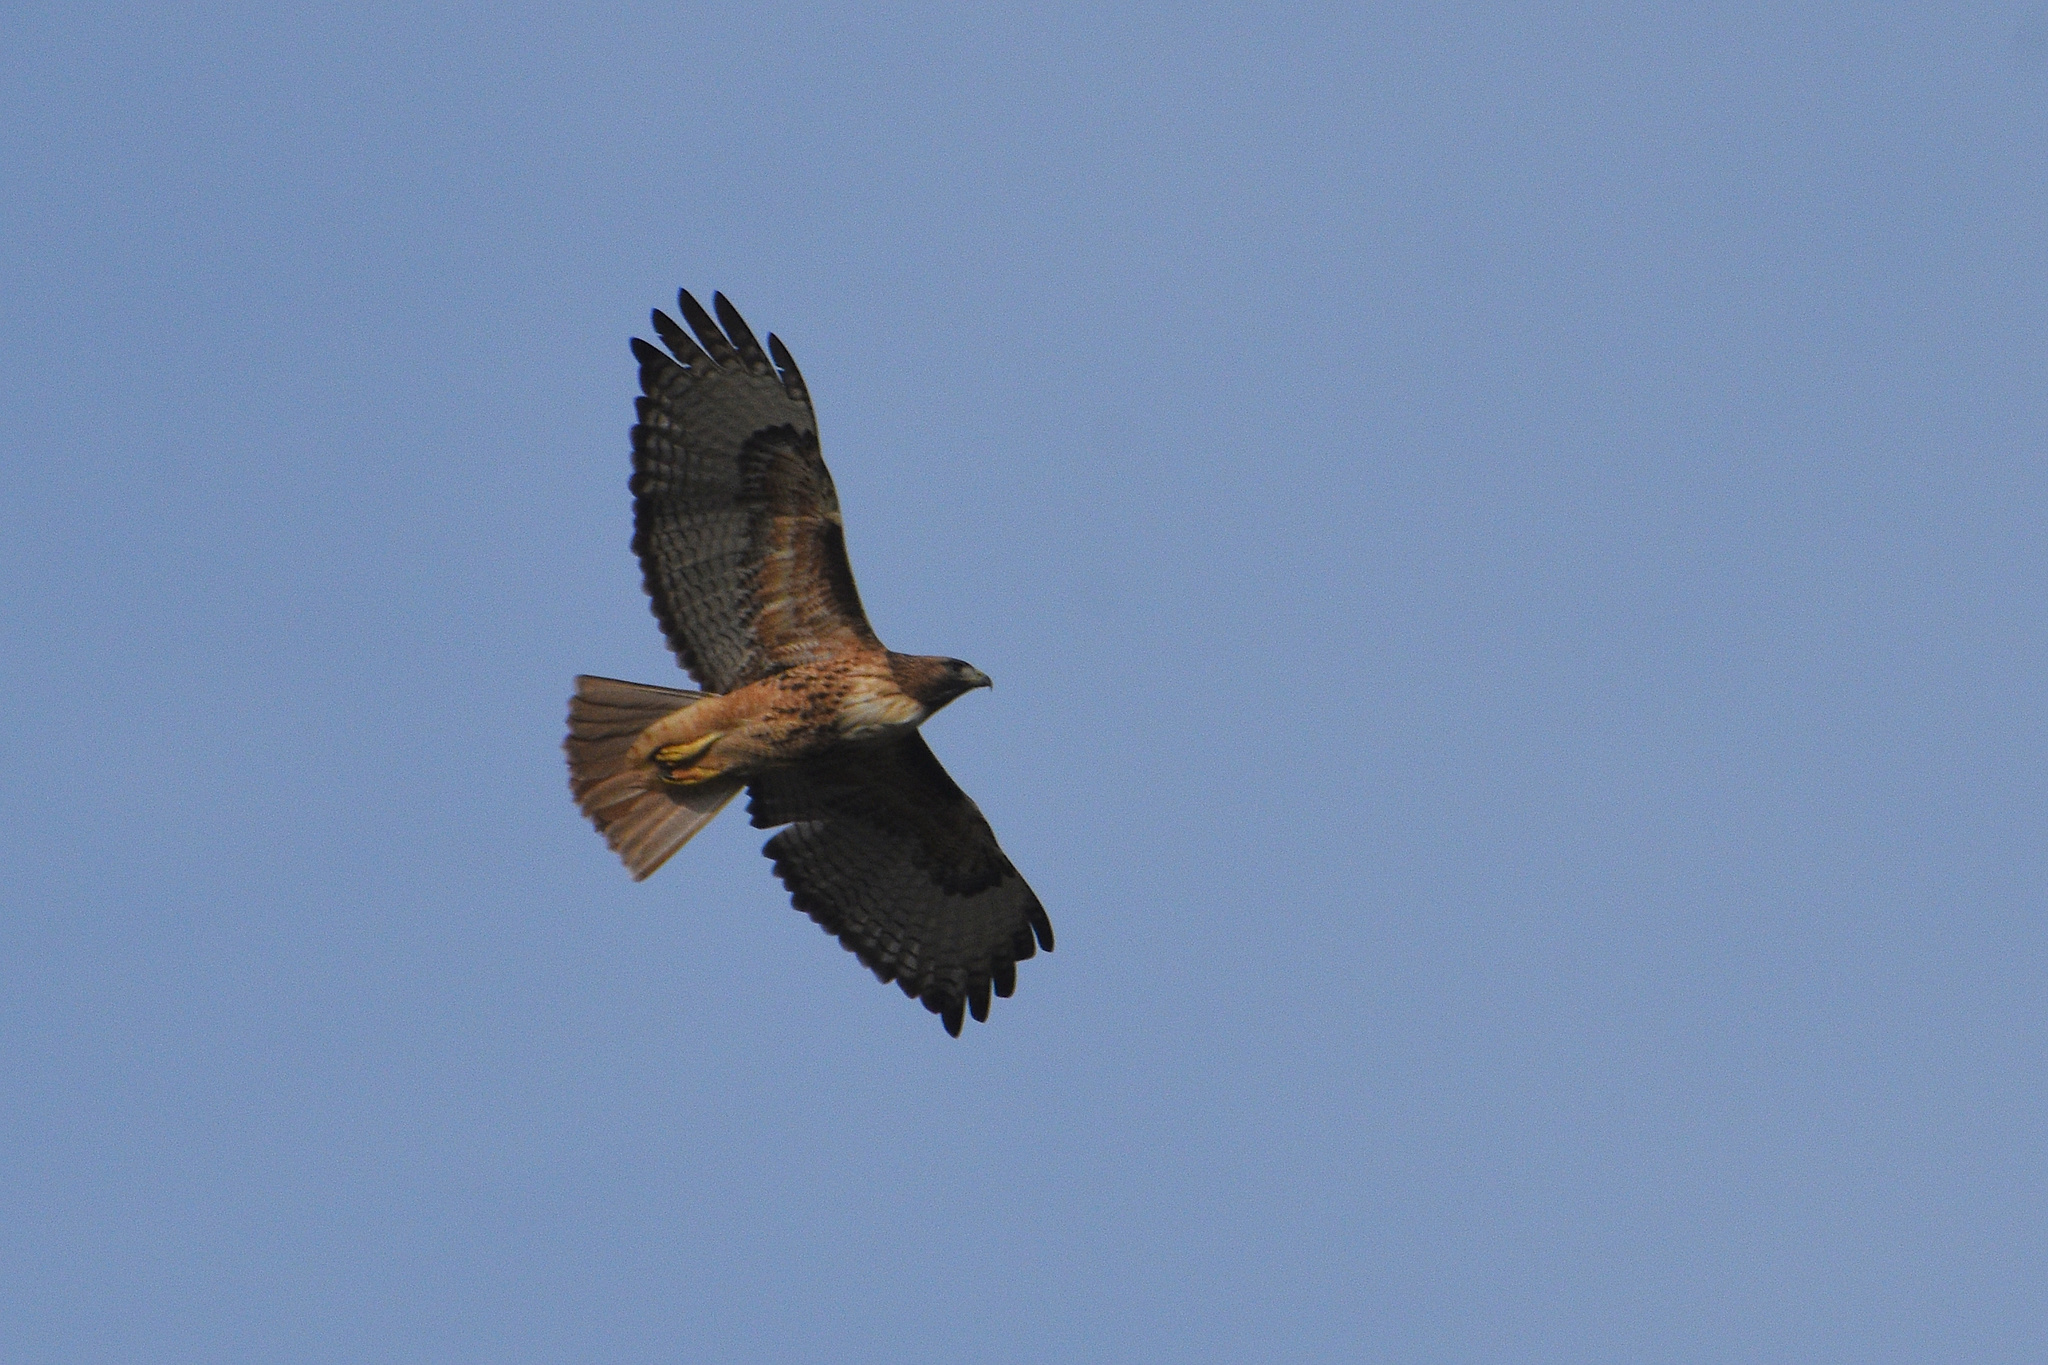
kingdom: Animalia
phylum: Chordata
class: Aves
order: Accipitriformes
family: Accipitridae
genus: Buteo
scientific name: Buteo jamaicensis
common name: Red-tailed hawk
